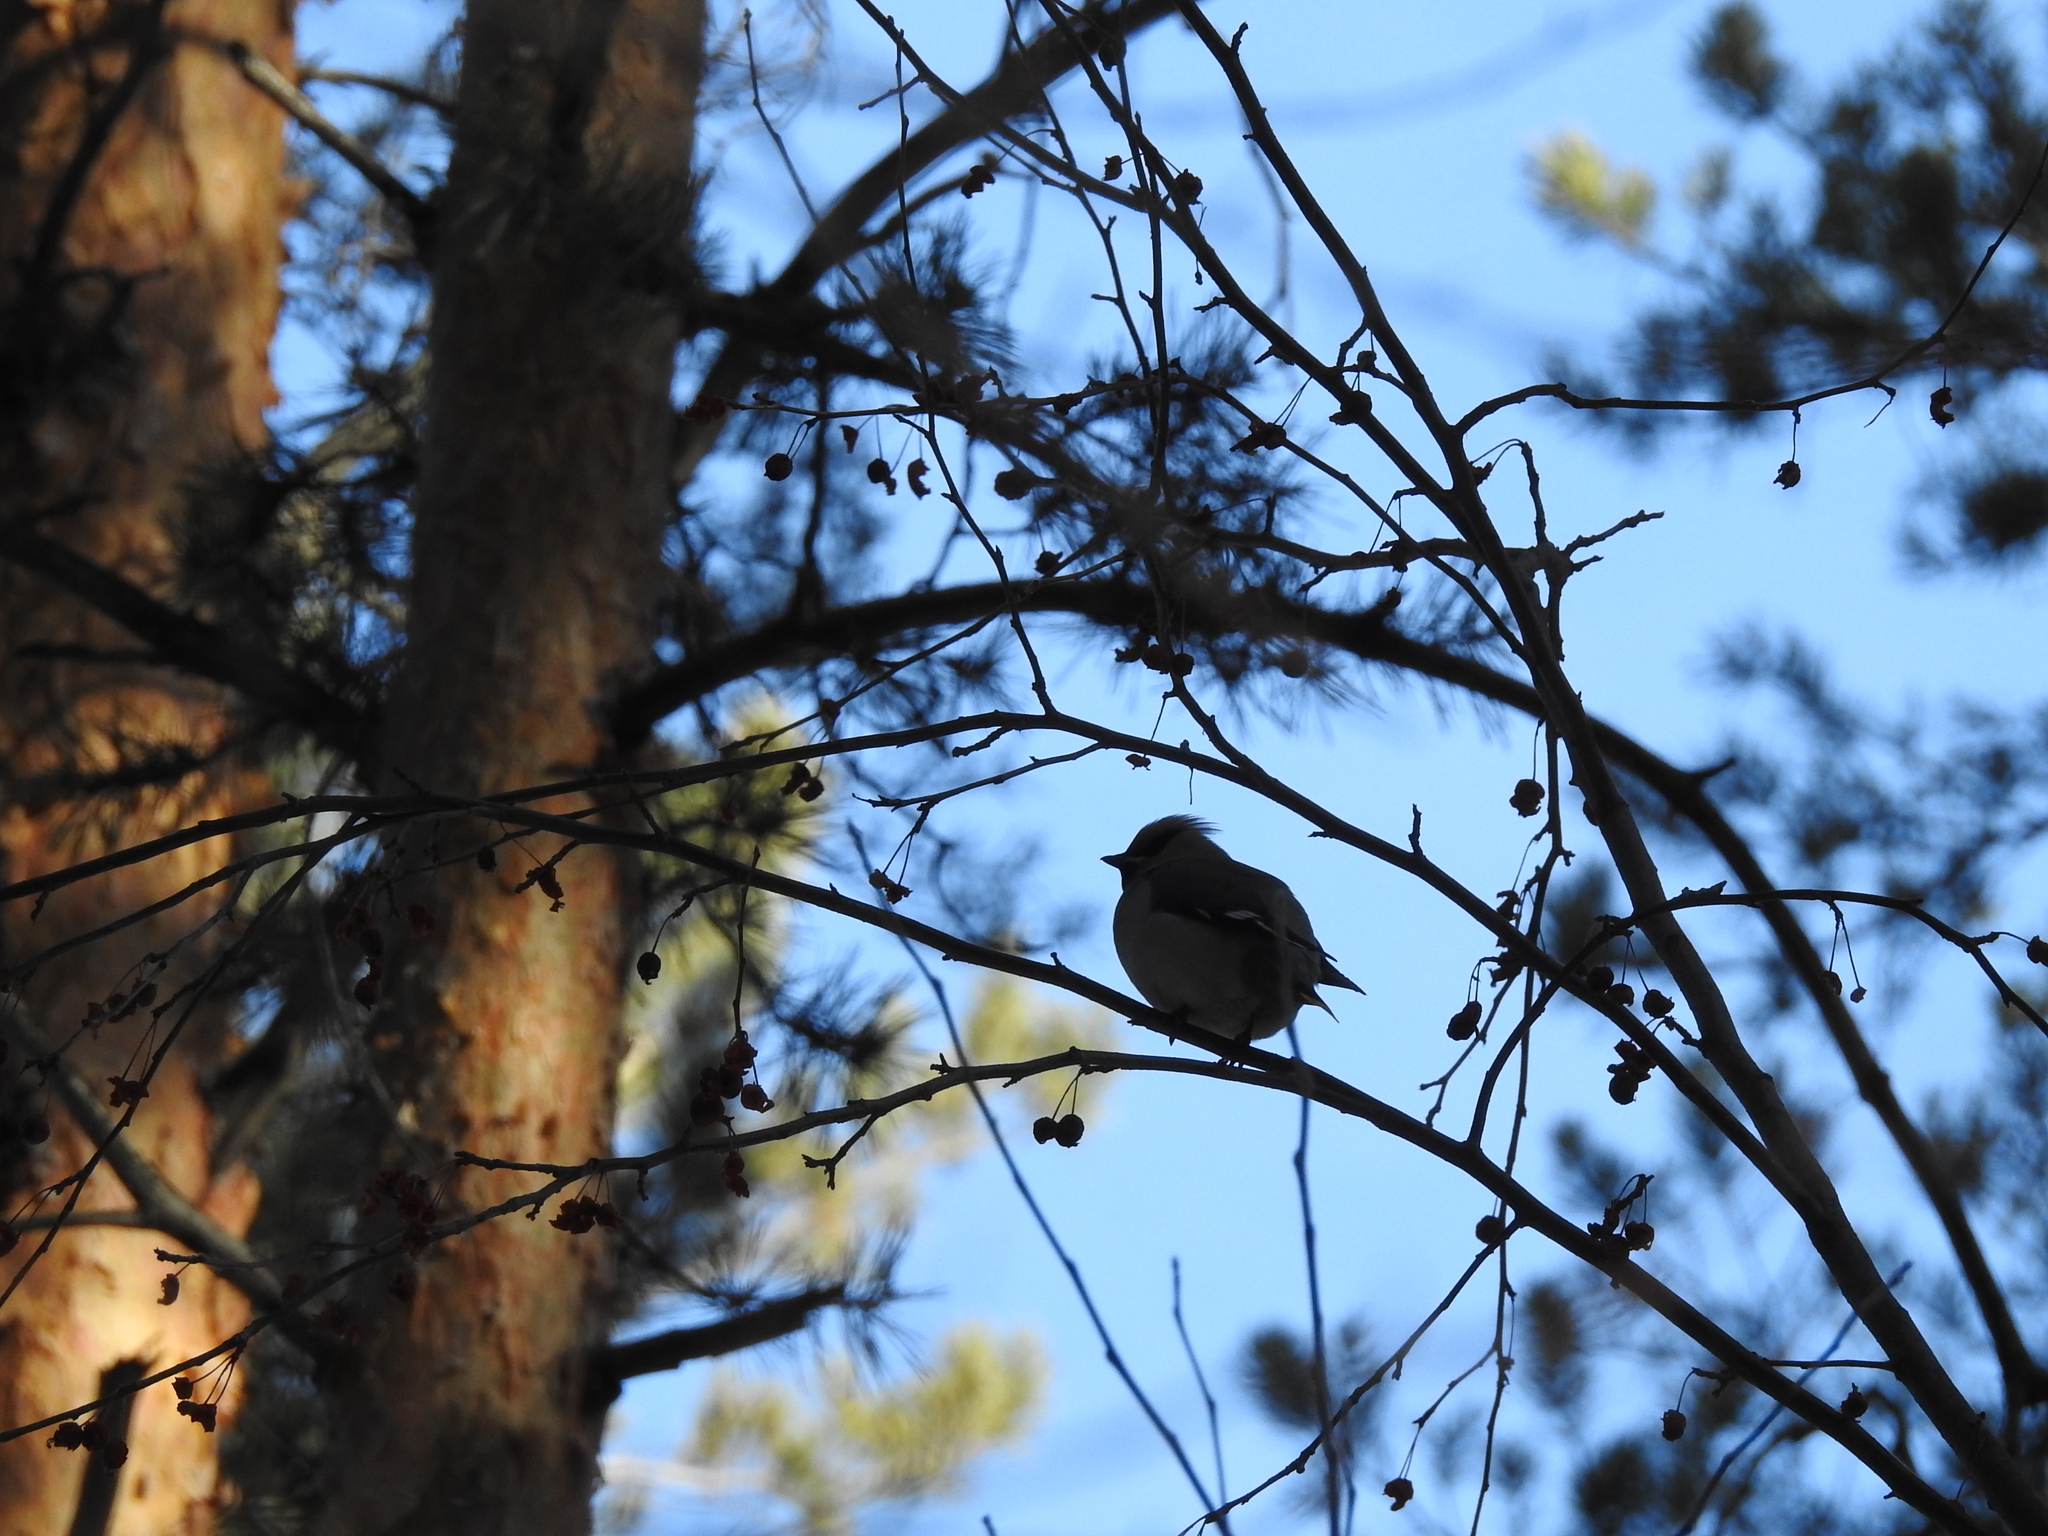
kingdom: Animalia
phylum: Chordata
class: Aves
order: Passeriformes
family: Bombycillidae
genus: Bombycilla
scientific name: Bombycilla garrulus
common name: Bohemian waxwing
